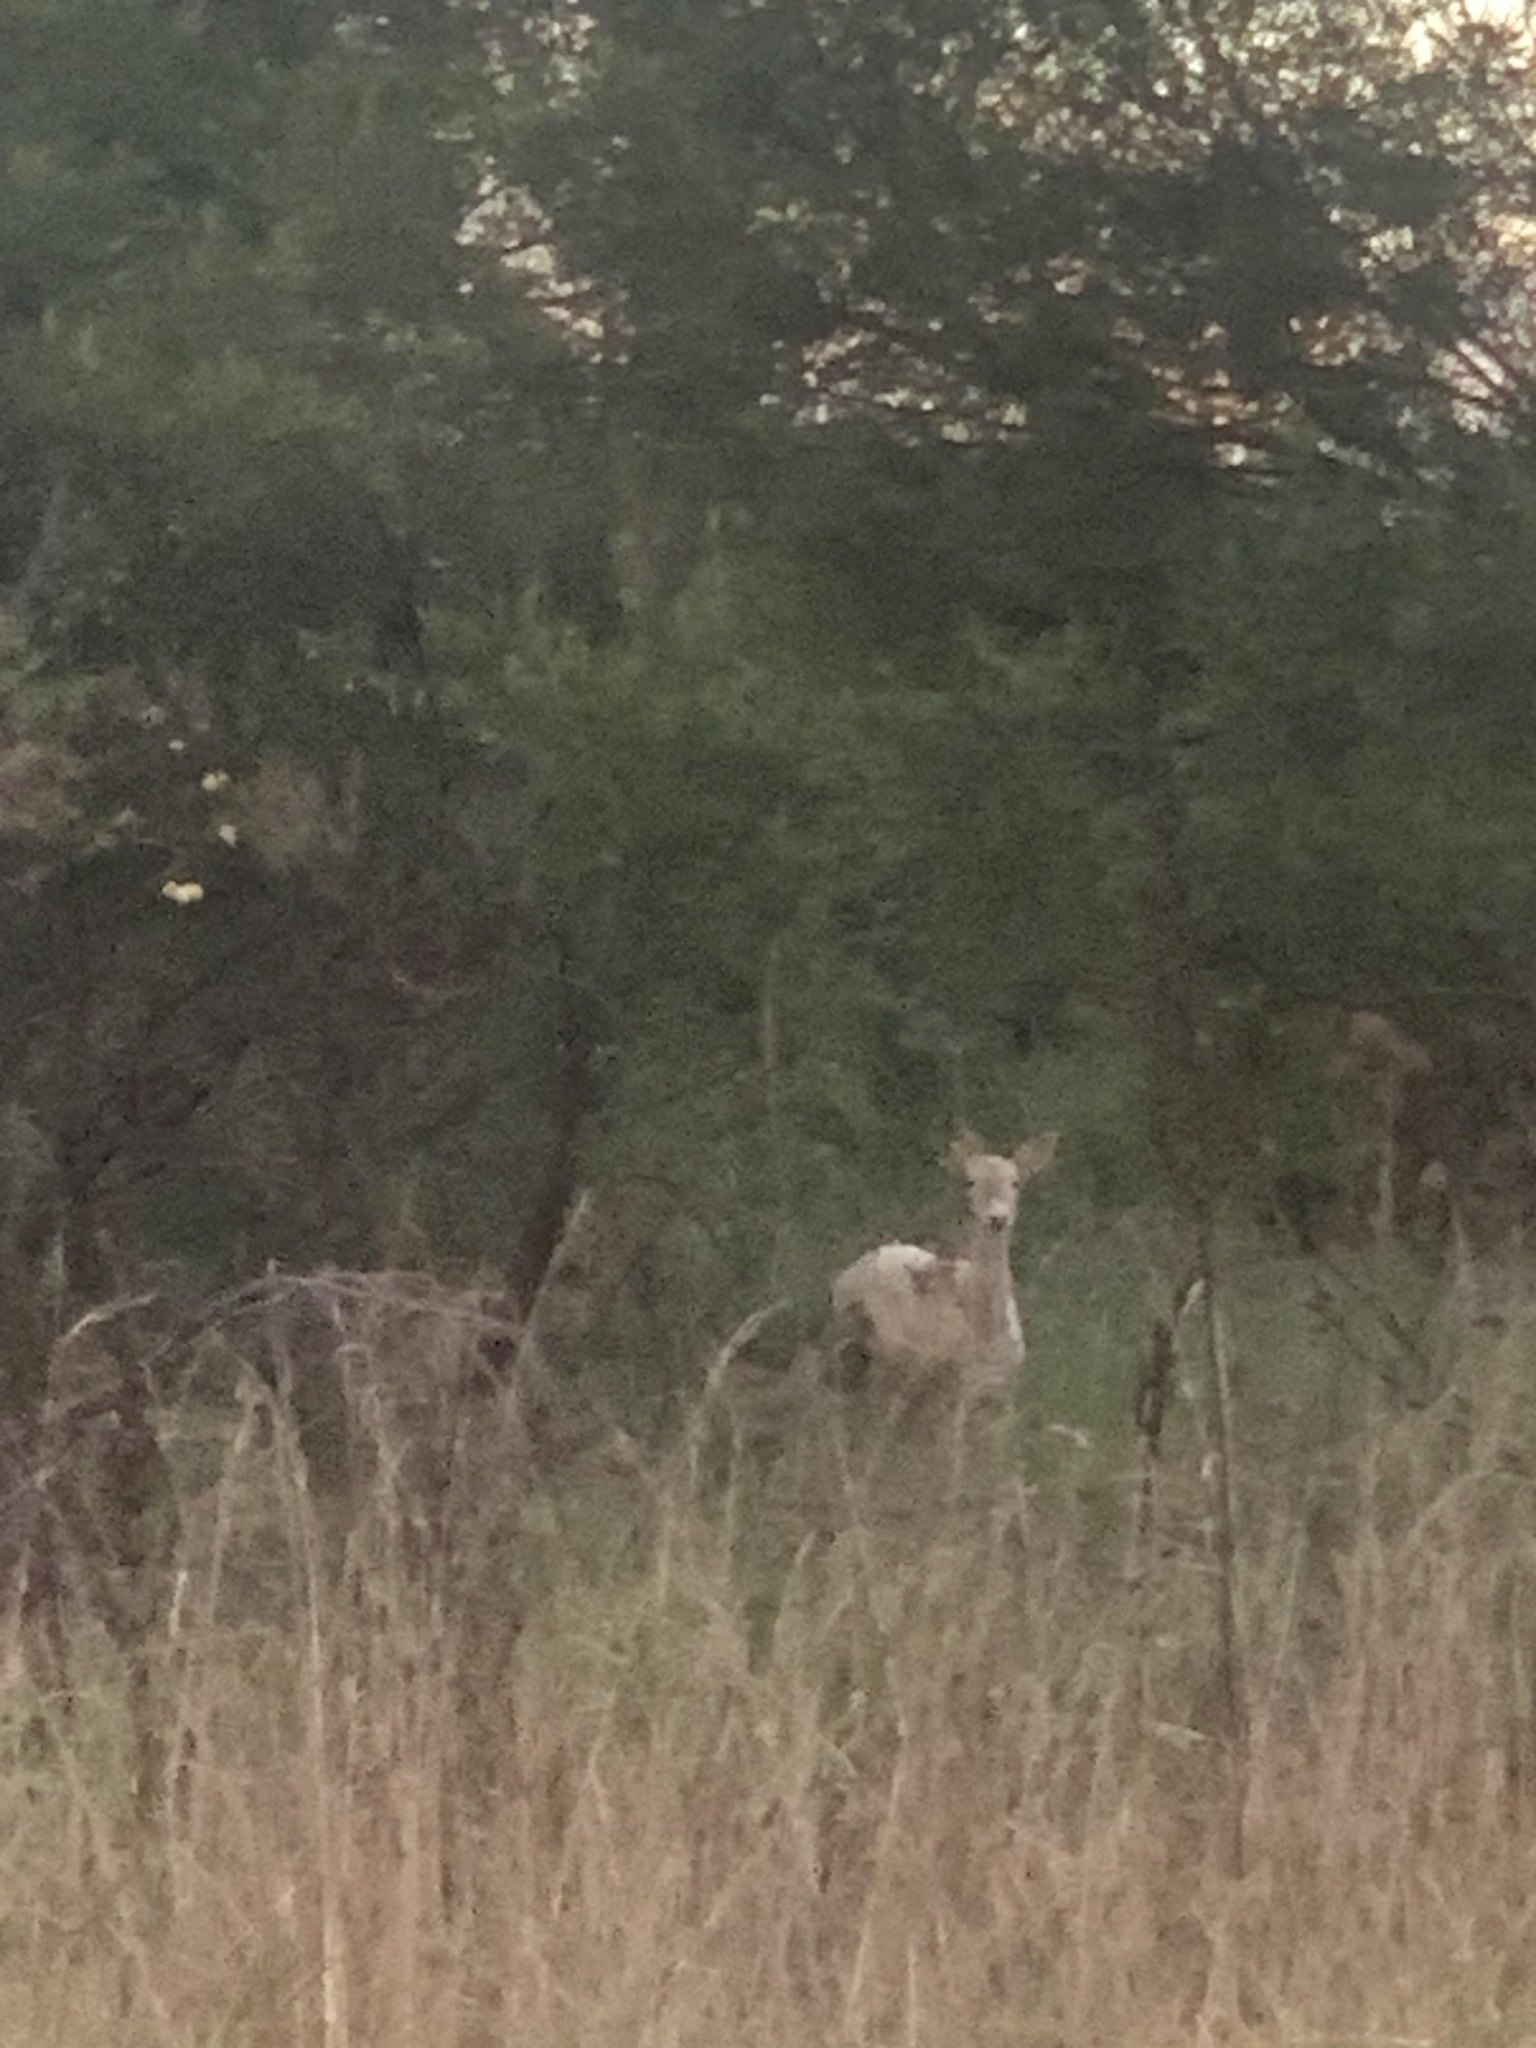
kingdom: Animalia
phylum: Chordata
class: Mammalia
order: Artiodactyla
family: Cervidae
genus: Dama
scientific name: Dama dama
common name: Fallow deer
